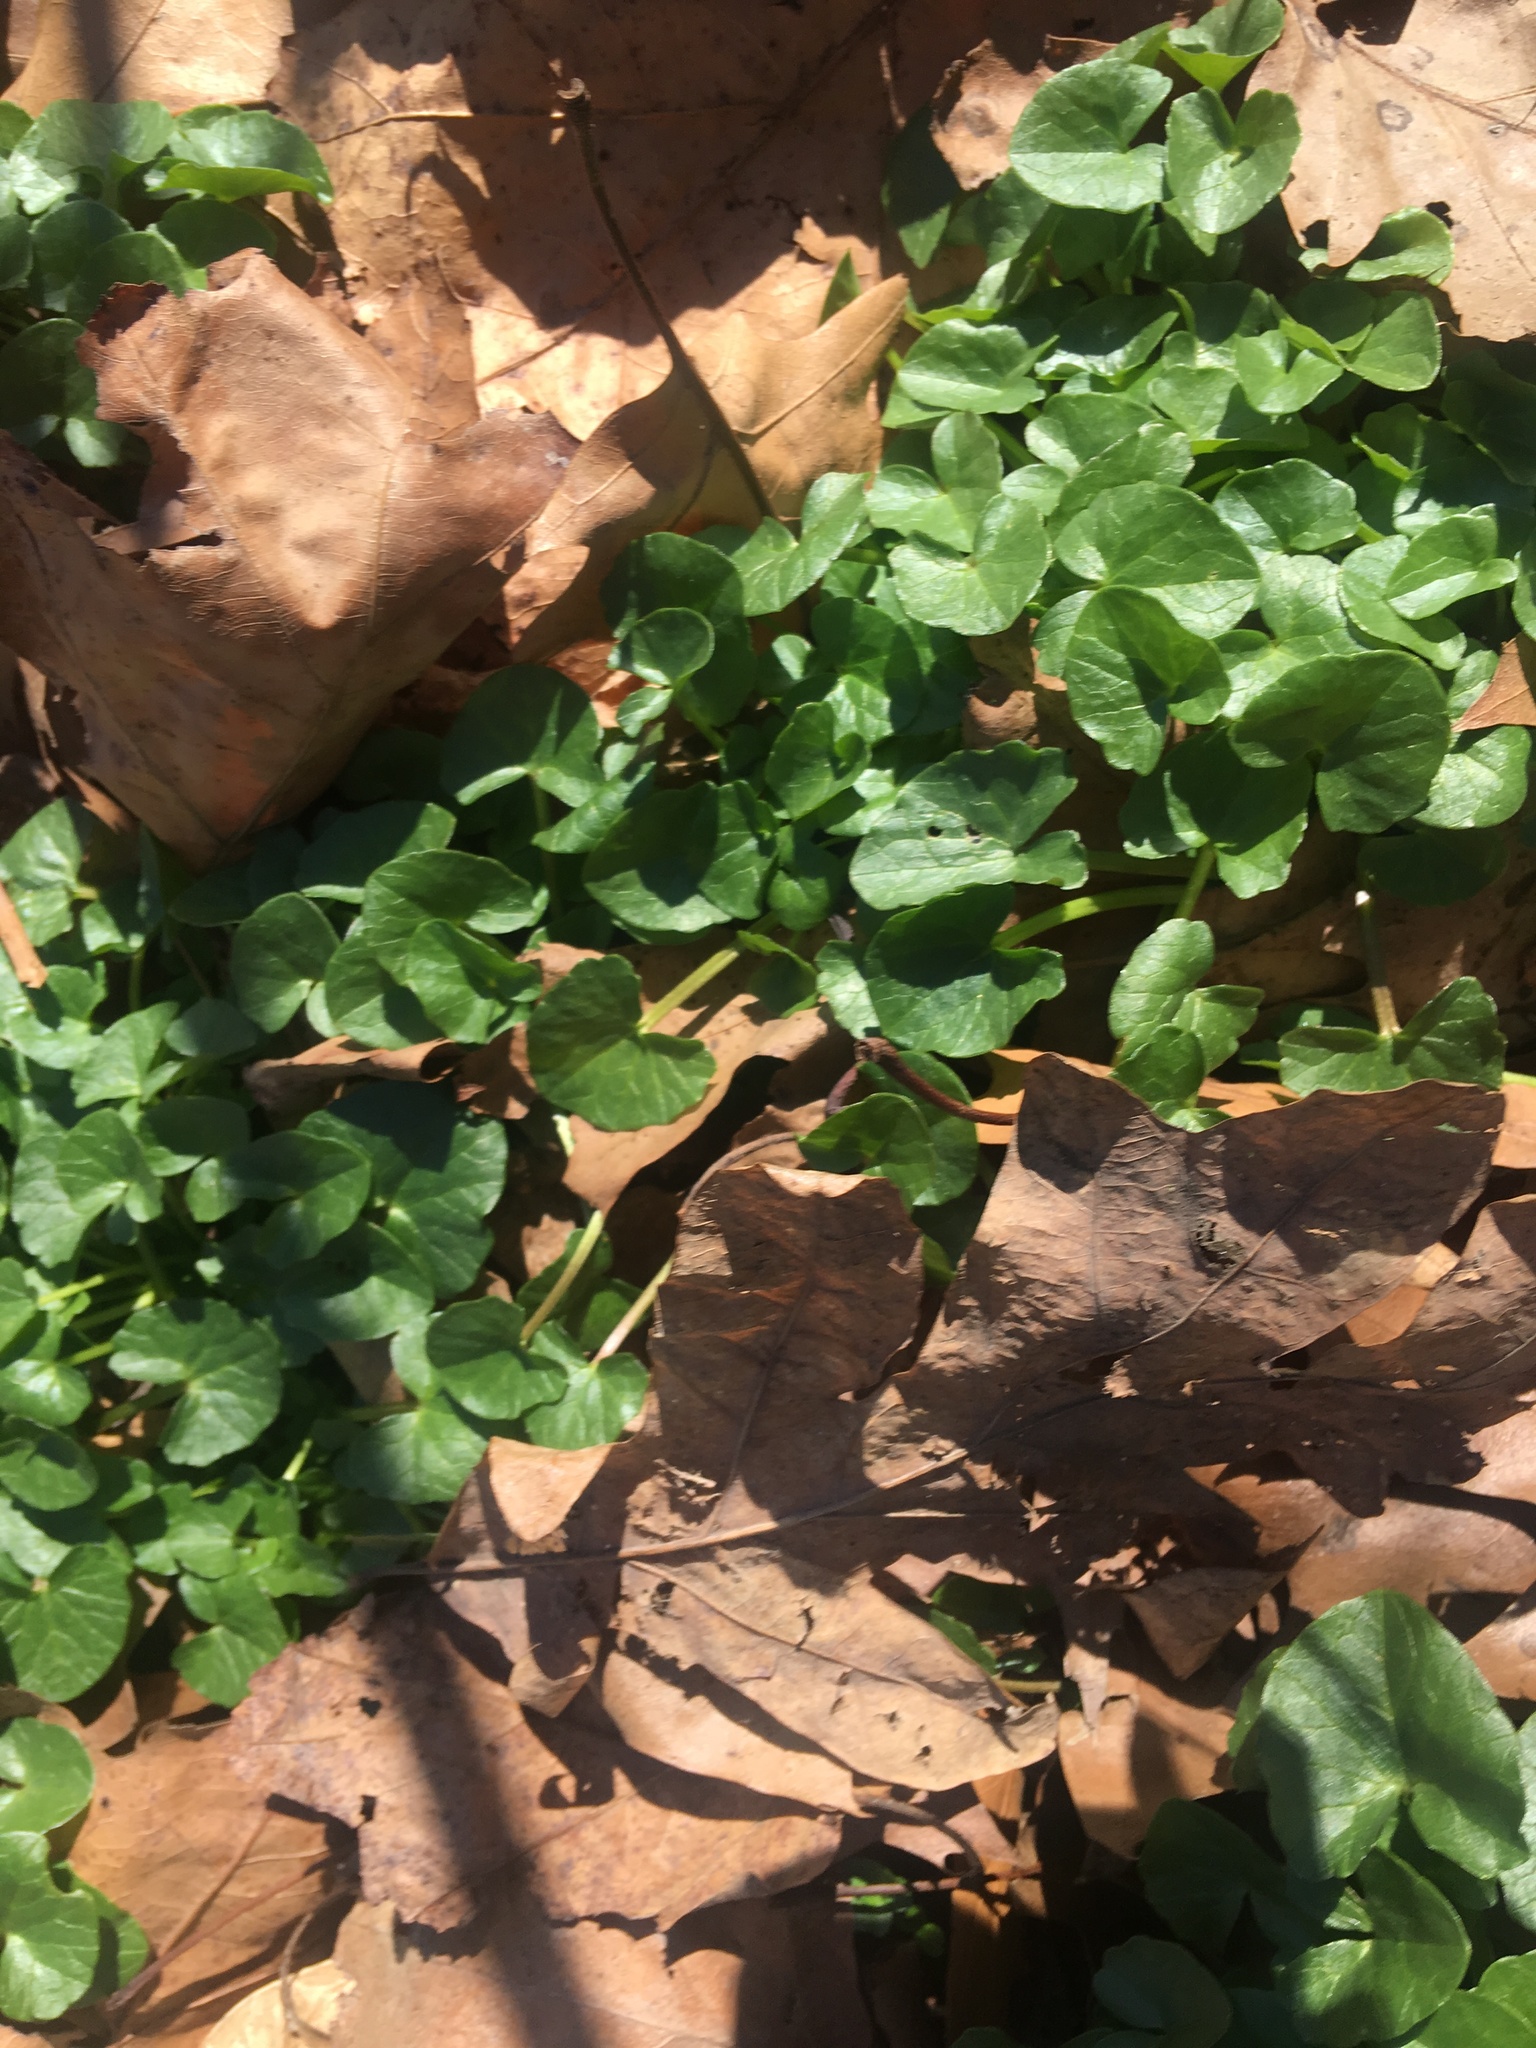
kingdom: Plantae
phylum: Tracheophyta
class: Magnoliopsida
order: Ranunculales
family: Ranunculaceae
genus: Ficaria
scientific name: Ficaria verna
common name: Lesser celandine
